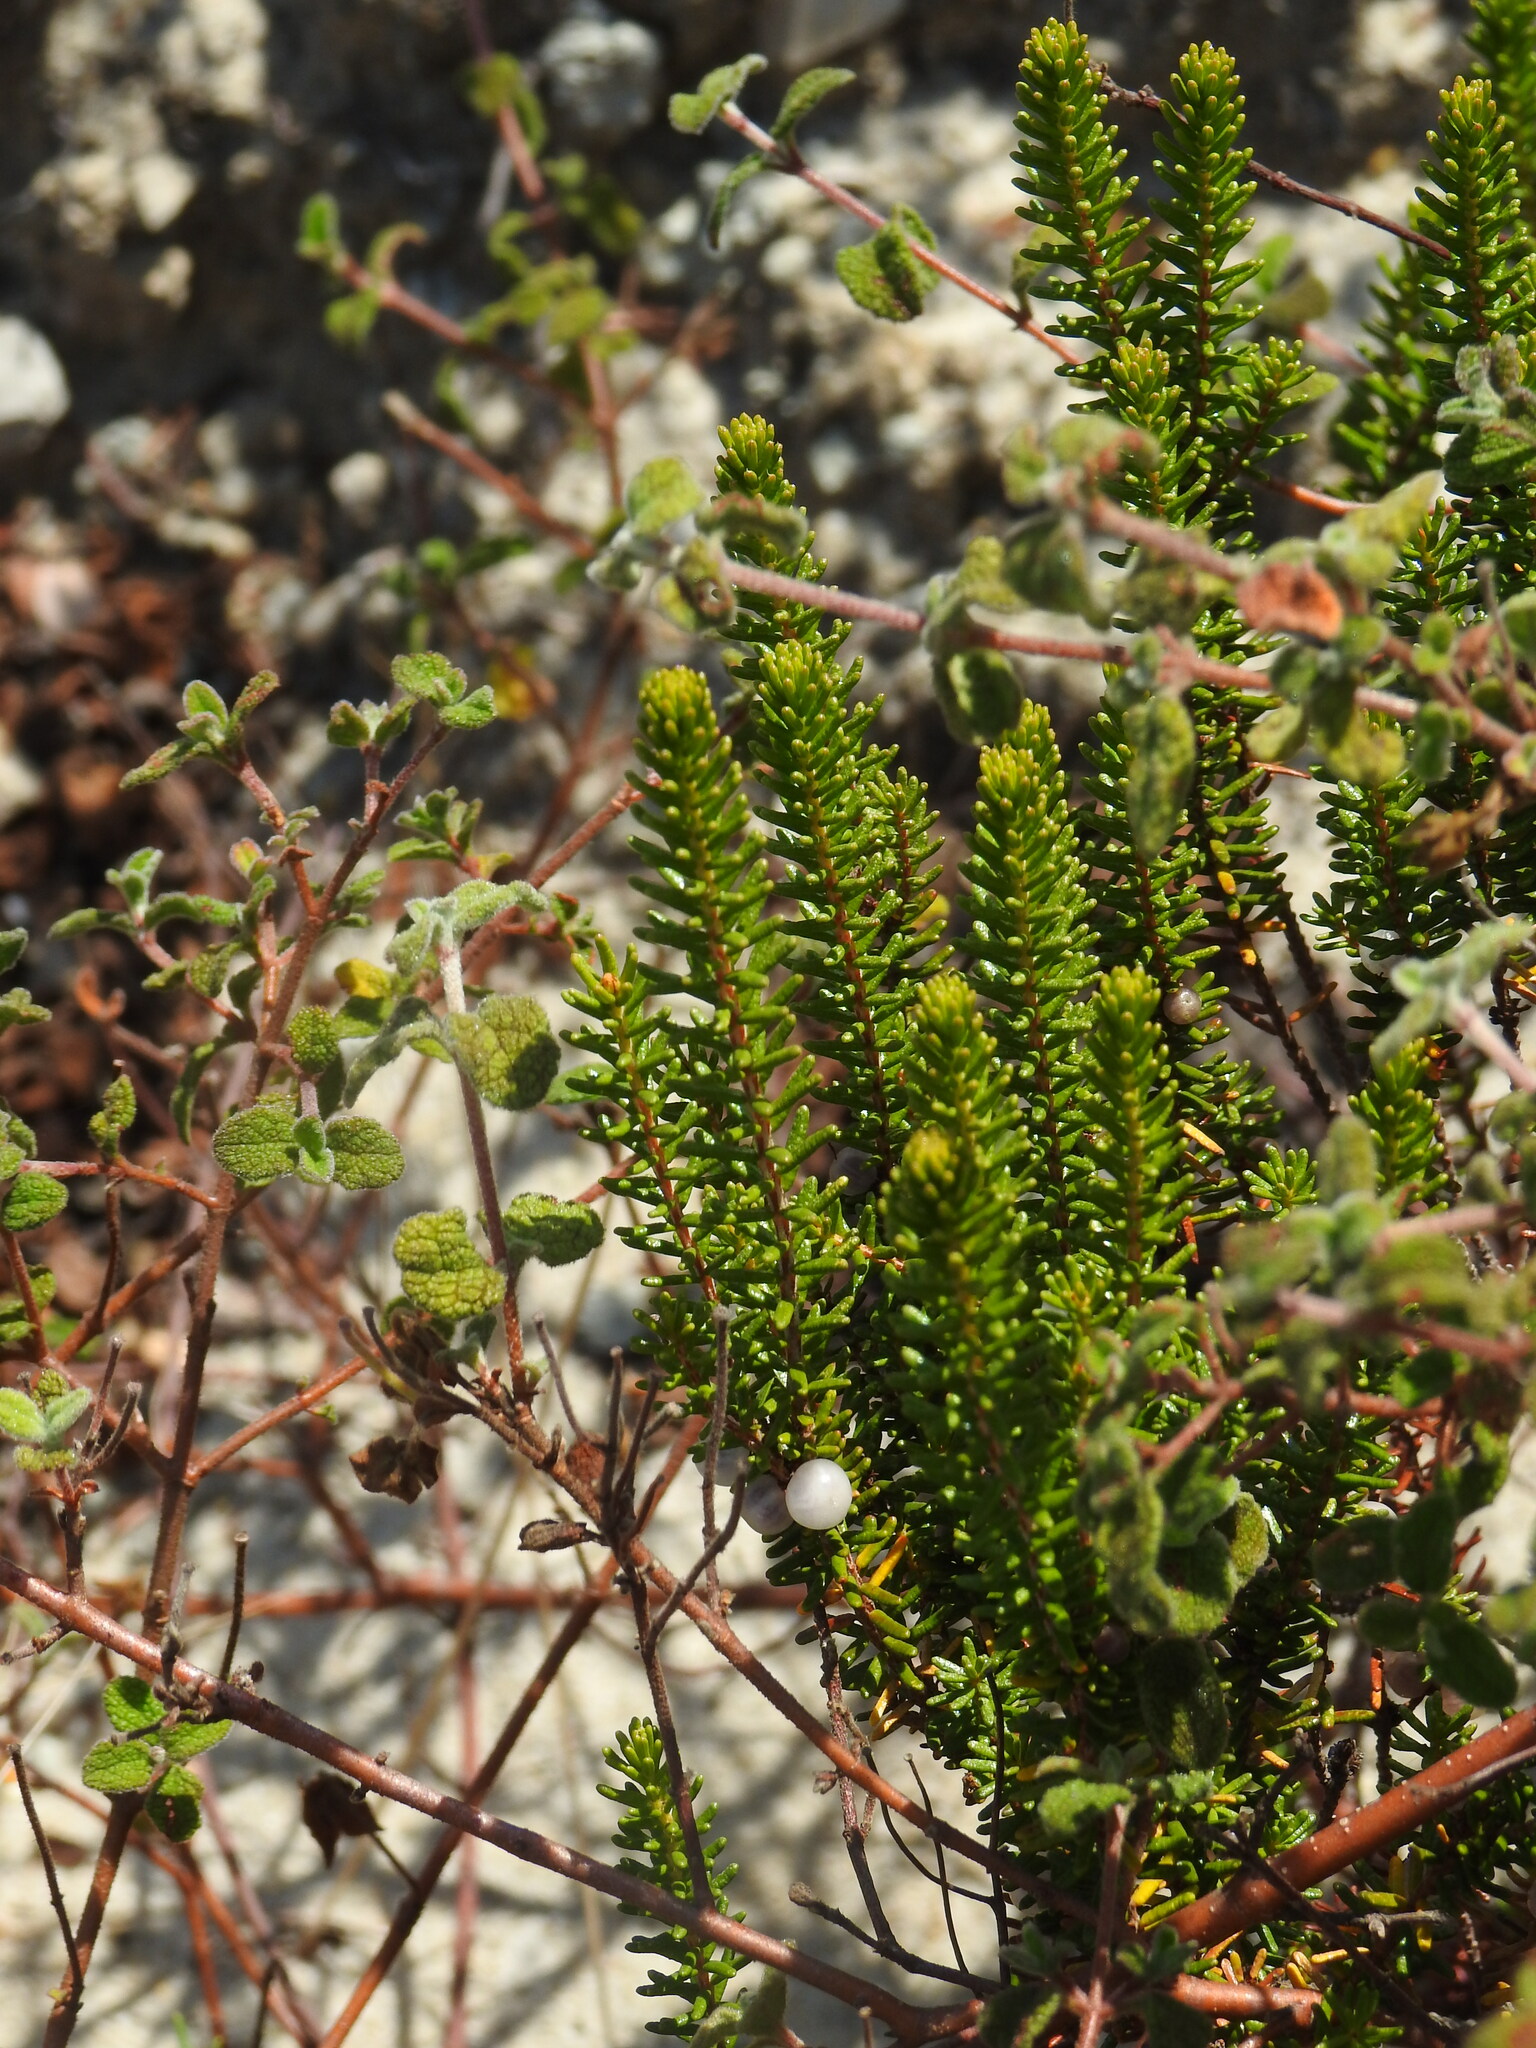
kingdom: Plantae
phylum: Tracheophyta
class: Magnoliopsida
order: Ericales
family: Ericaceae
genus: Corema
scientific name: Corema album
